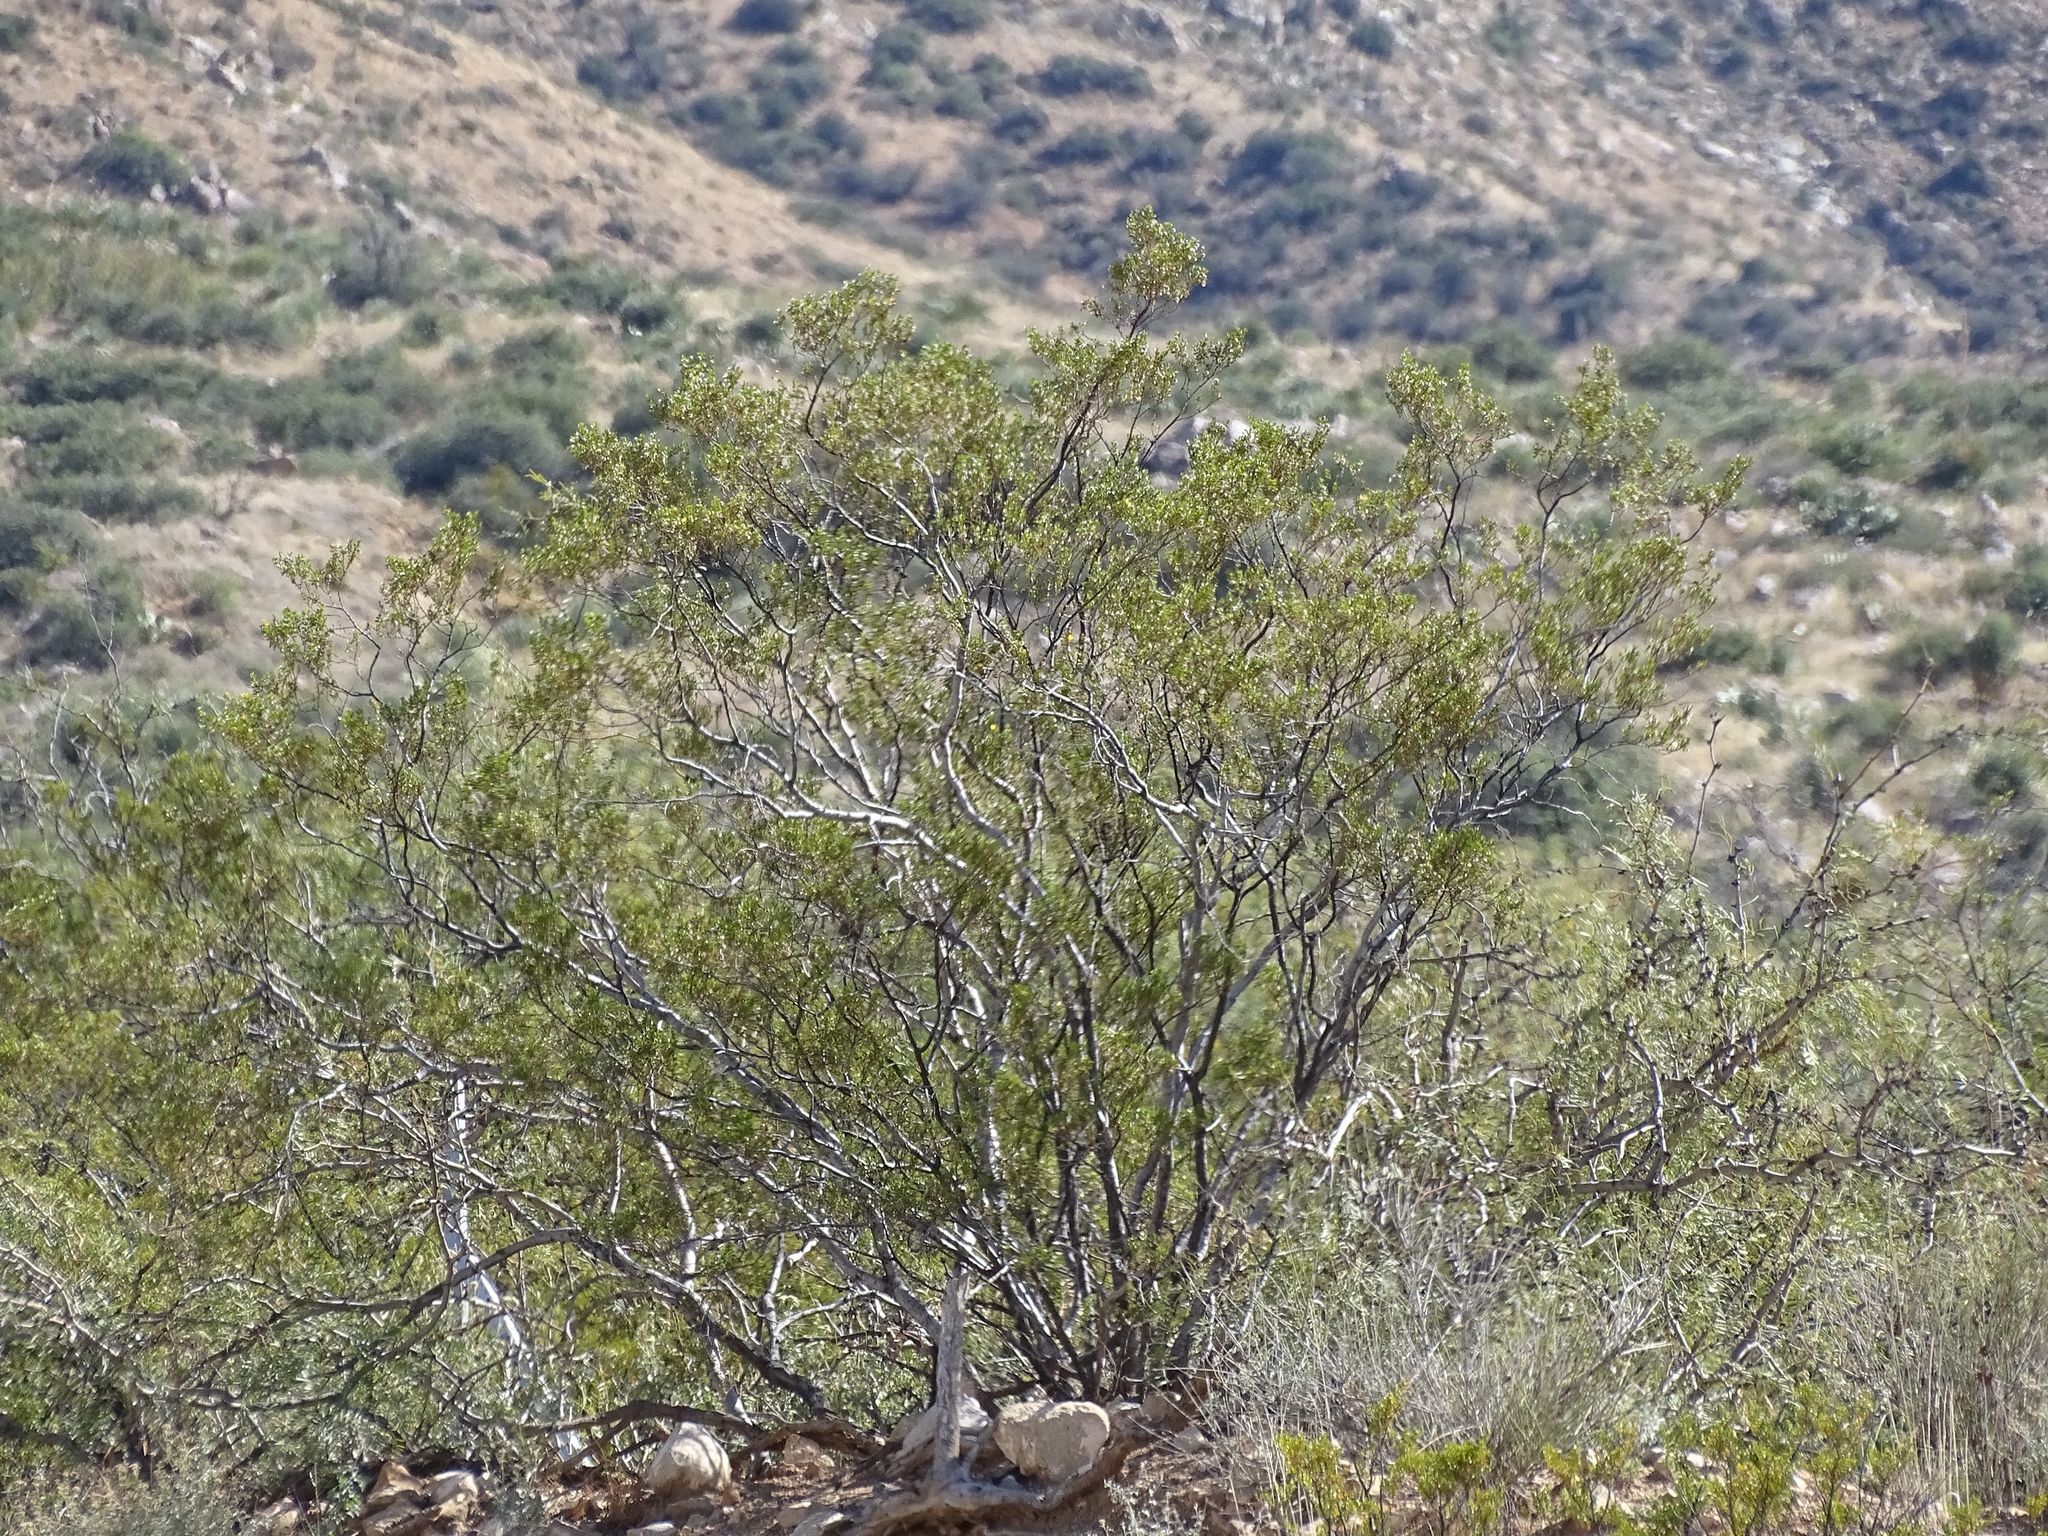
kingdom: Plantae
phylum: Tracheophyta
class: Magnoliopsida
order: Zygophyllales
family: Zygophyllaceae
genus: Larrea
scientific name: Larrea tridentata
